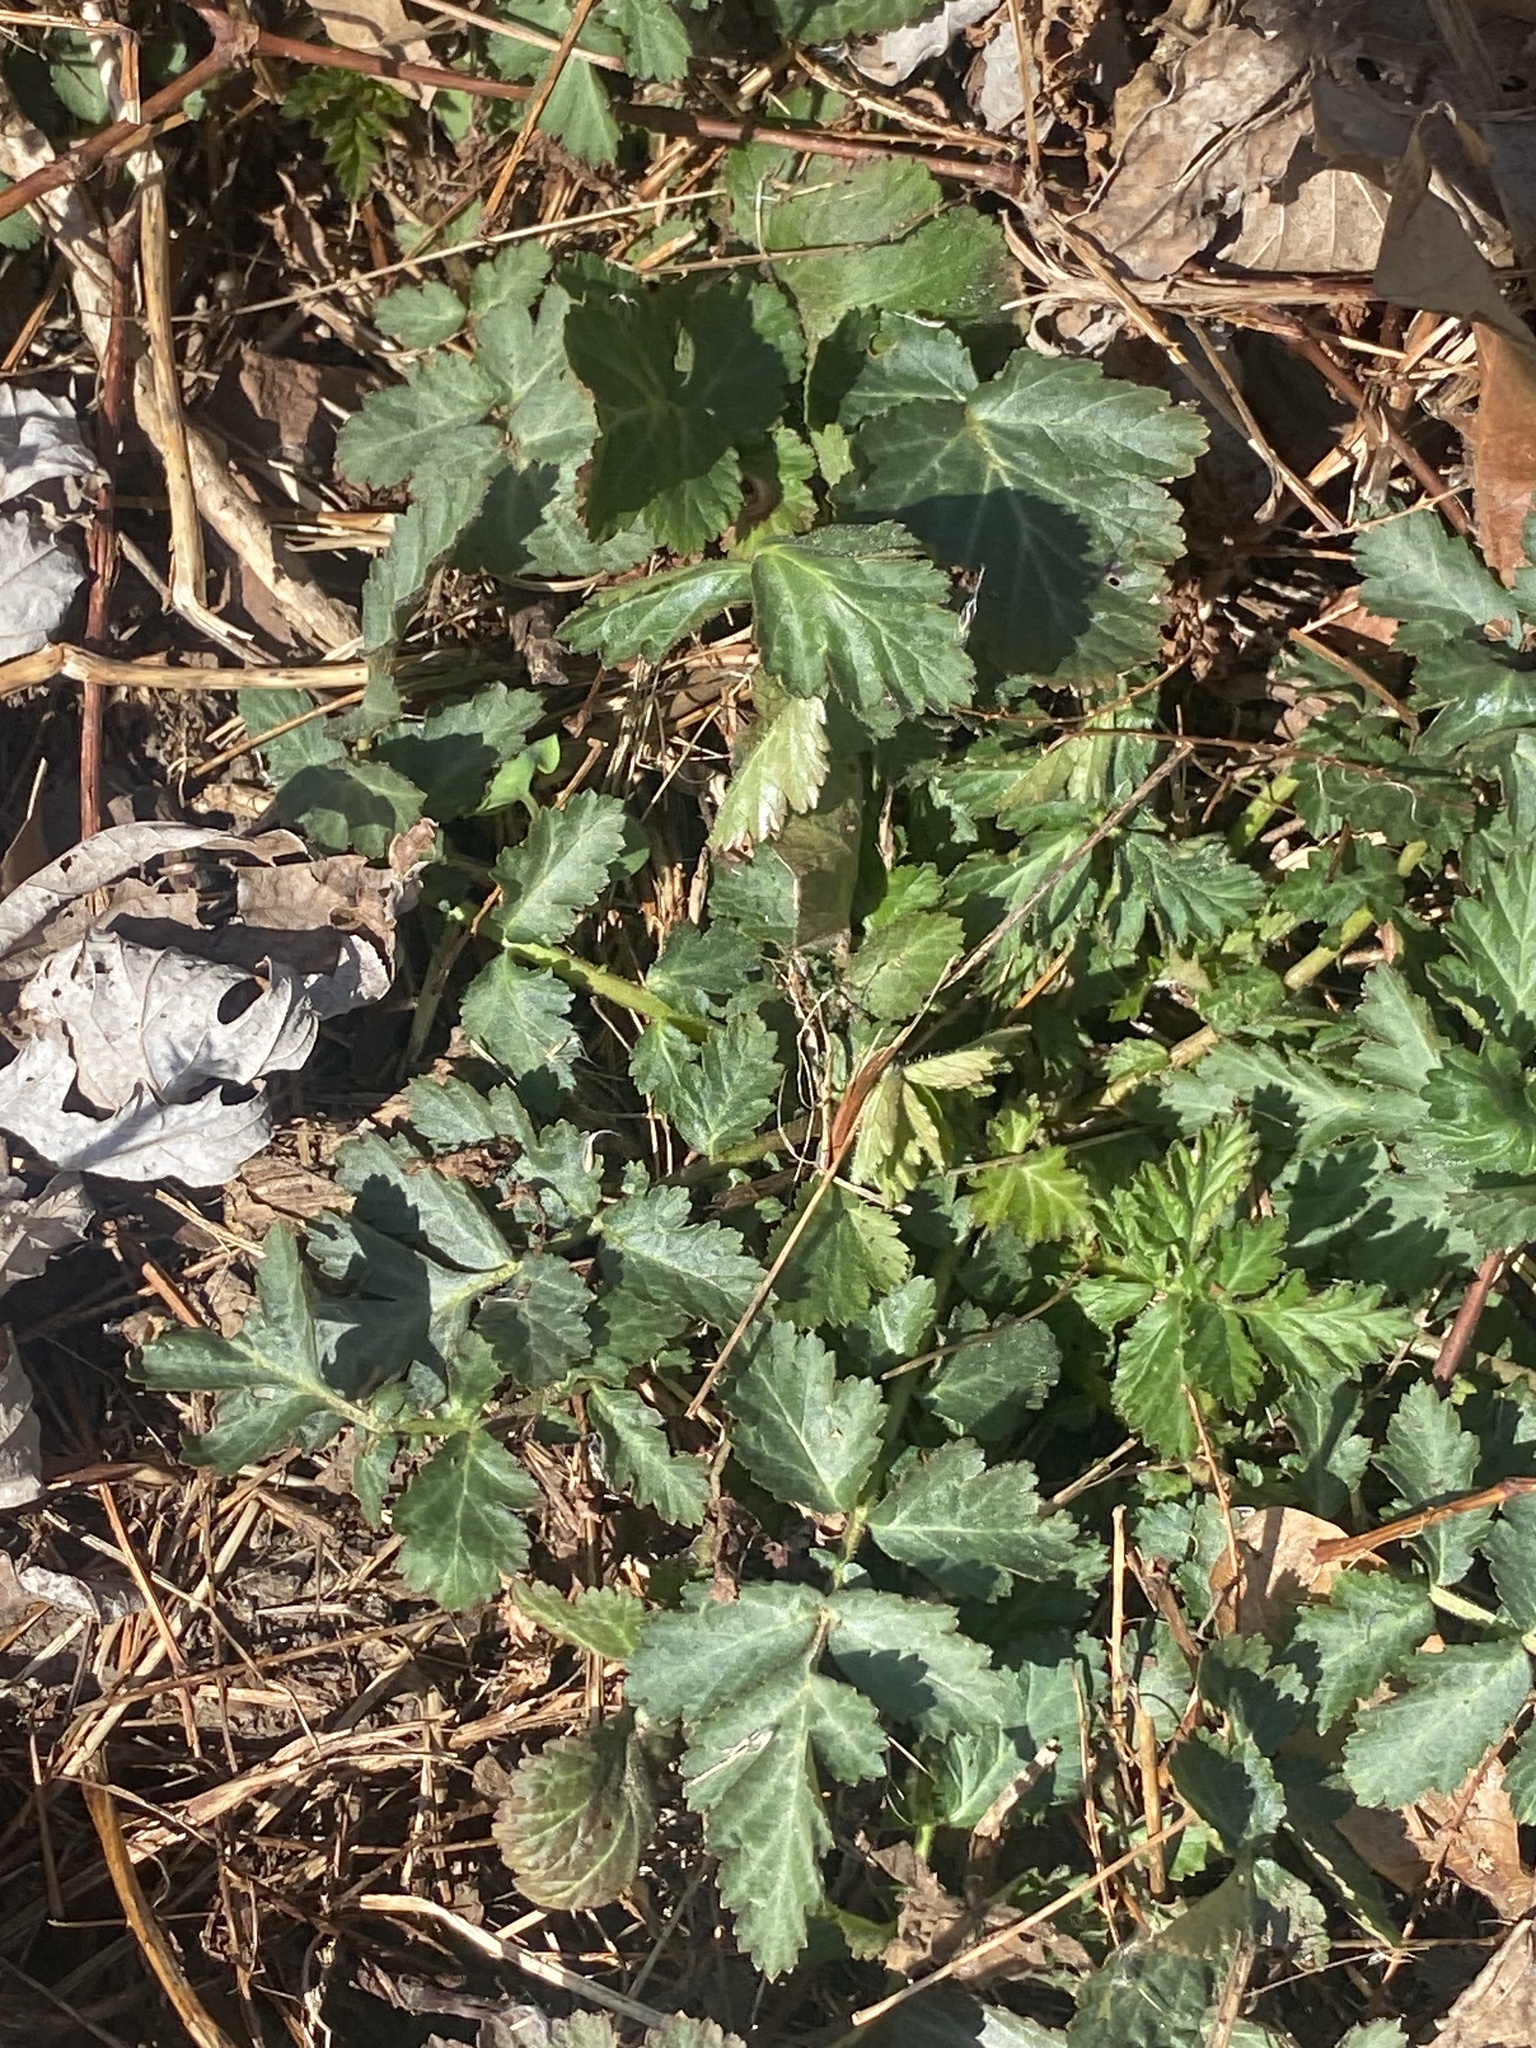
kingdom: Plantae
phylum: Tracheophyta
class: Magnoliopsida
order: Rosales
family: Rosaceae
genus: Geum
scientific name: Geum canadense
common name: White avens
